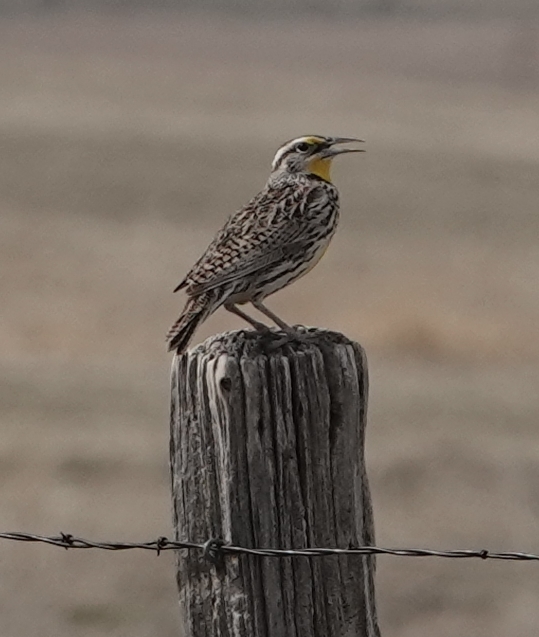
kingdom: Animalia
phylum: Chordata
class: Aves
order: Passeriformes
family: Icteridae
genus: Sturnella
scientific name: Sturnella neglecta
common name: Western meadowlark
